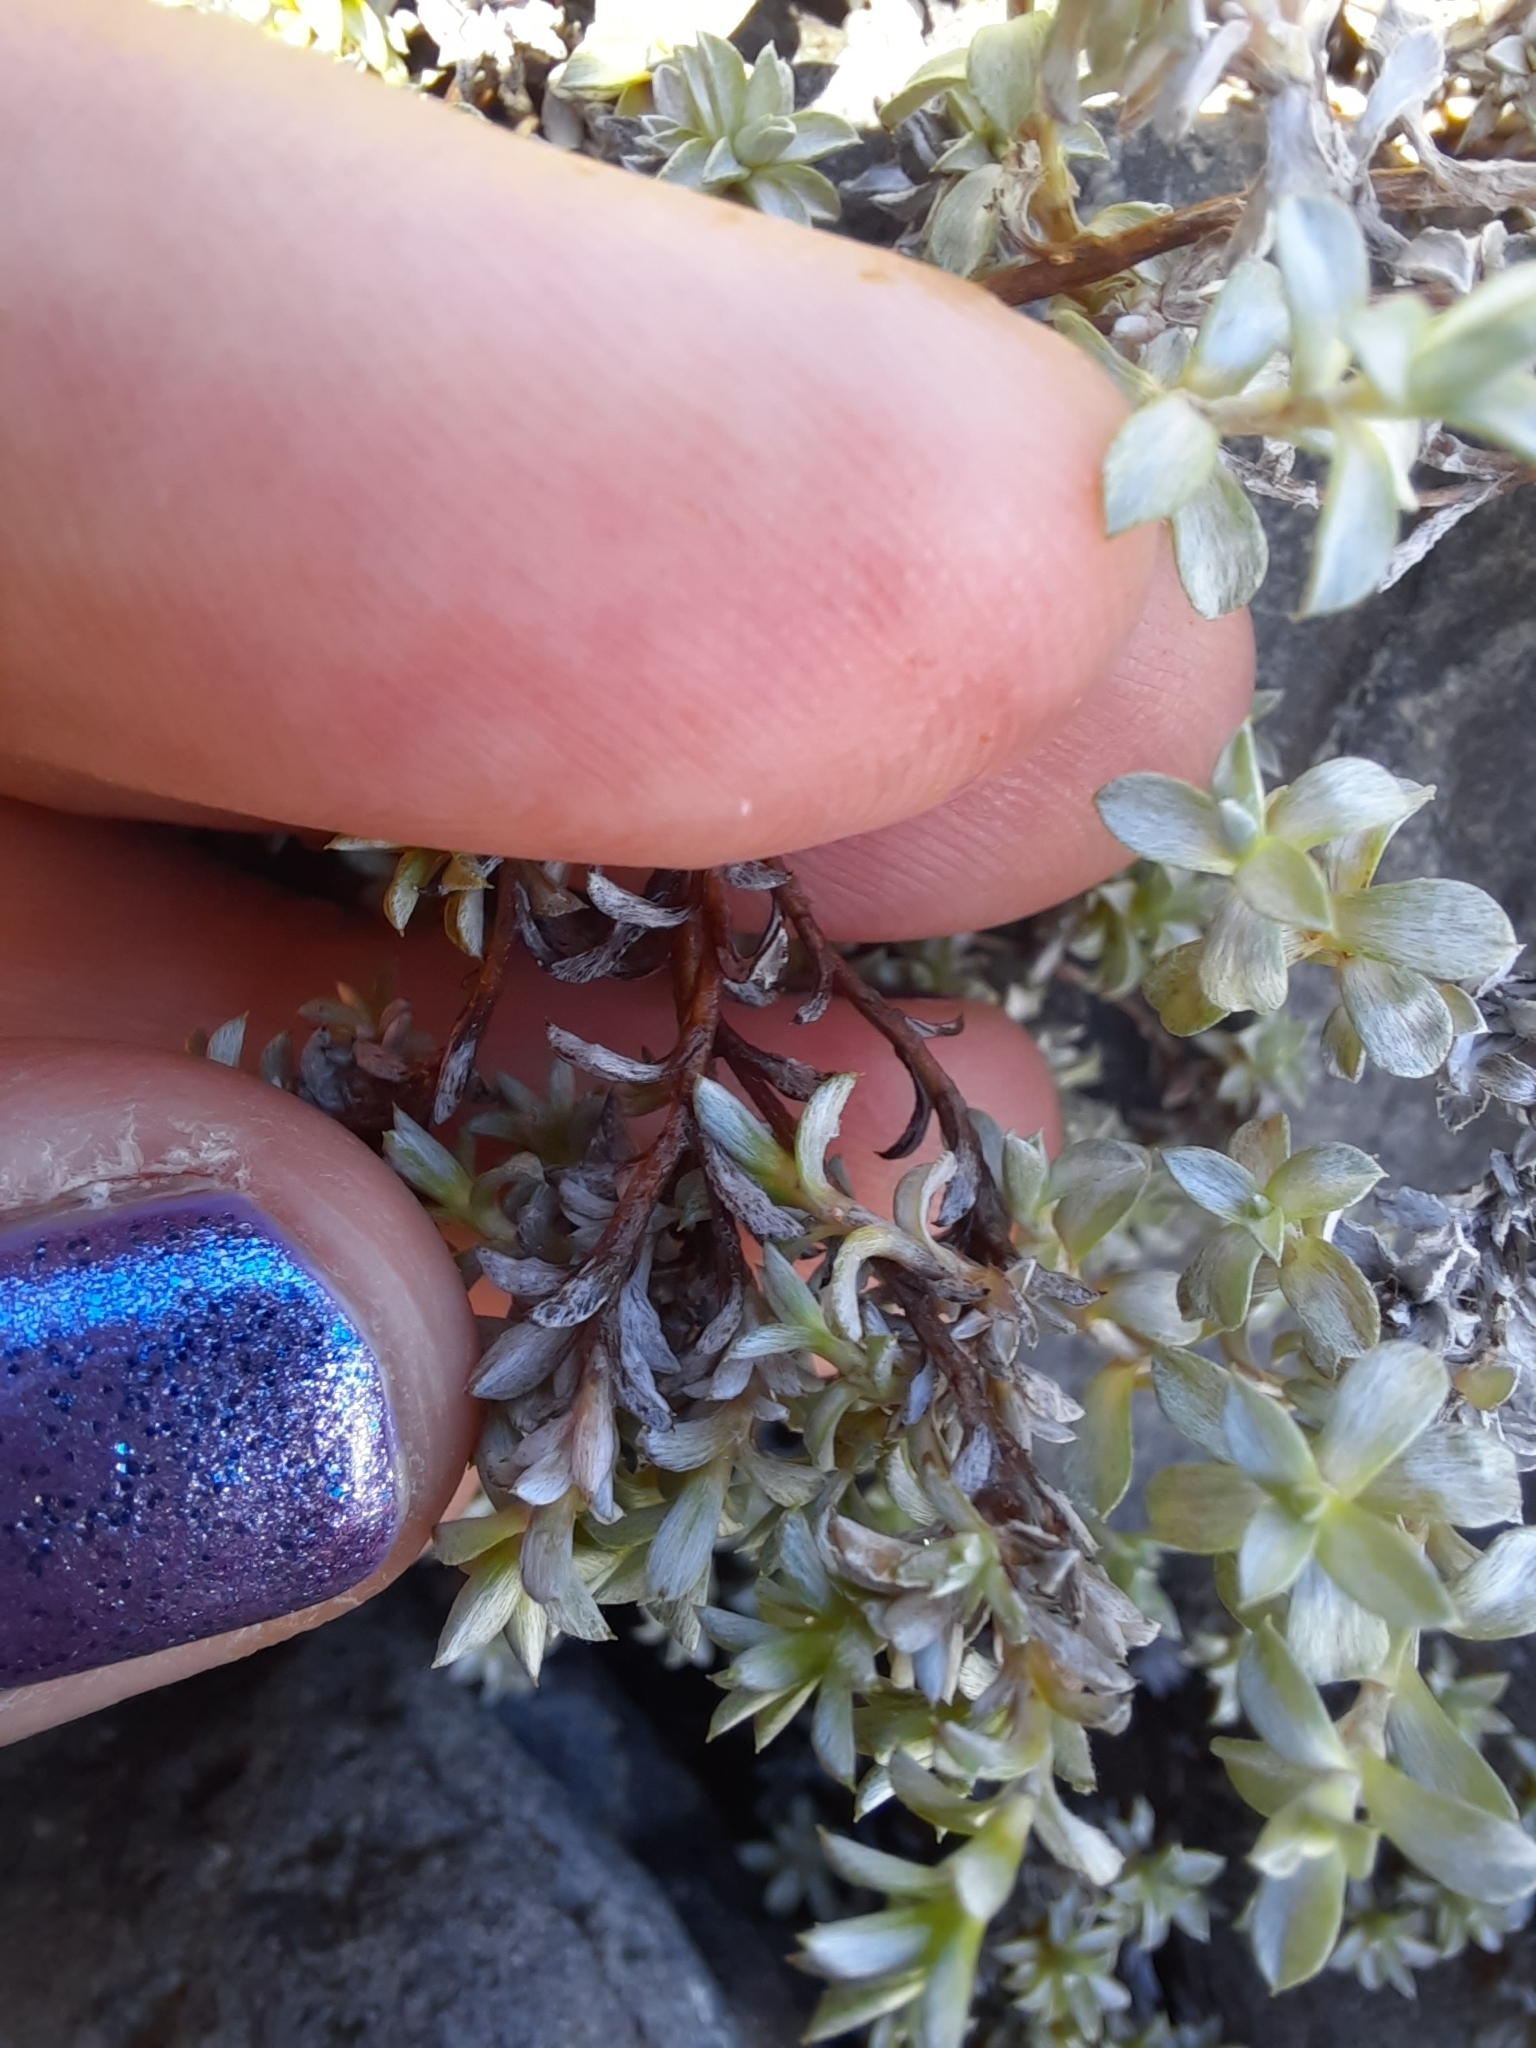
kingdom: Plantae
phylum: Tracheophyta
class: Magnoliopsida
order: Asterales
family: Asteraceae
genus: Raoulia
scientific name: Raoulia tenuicaulis
